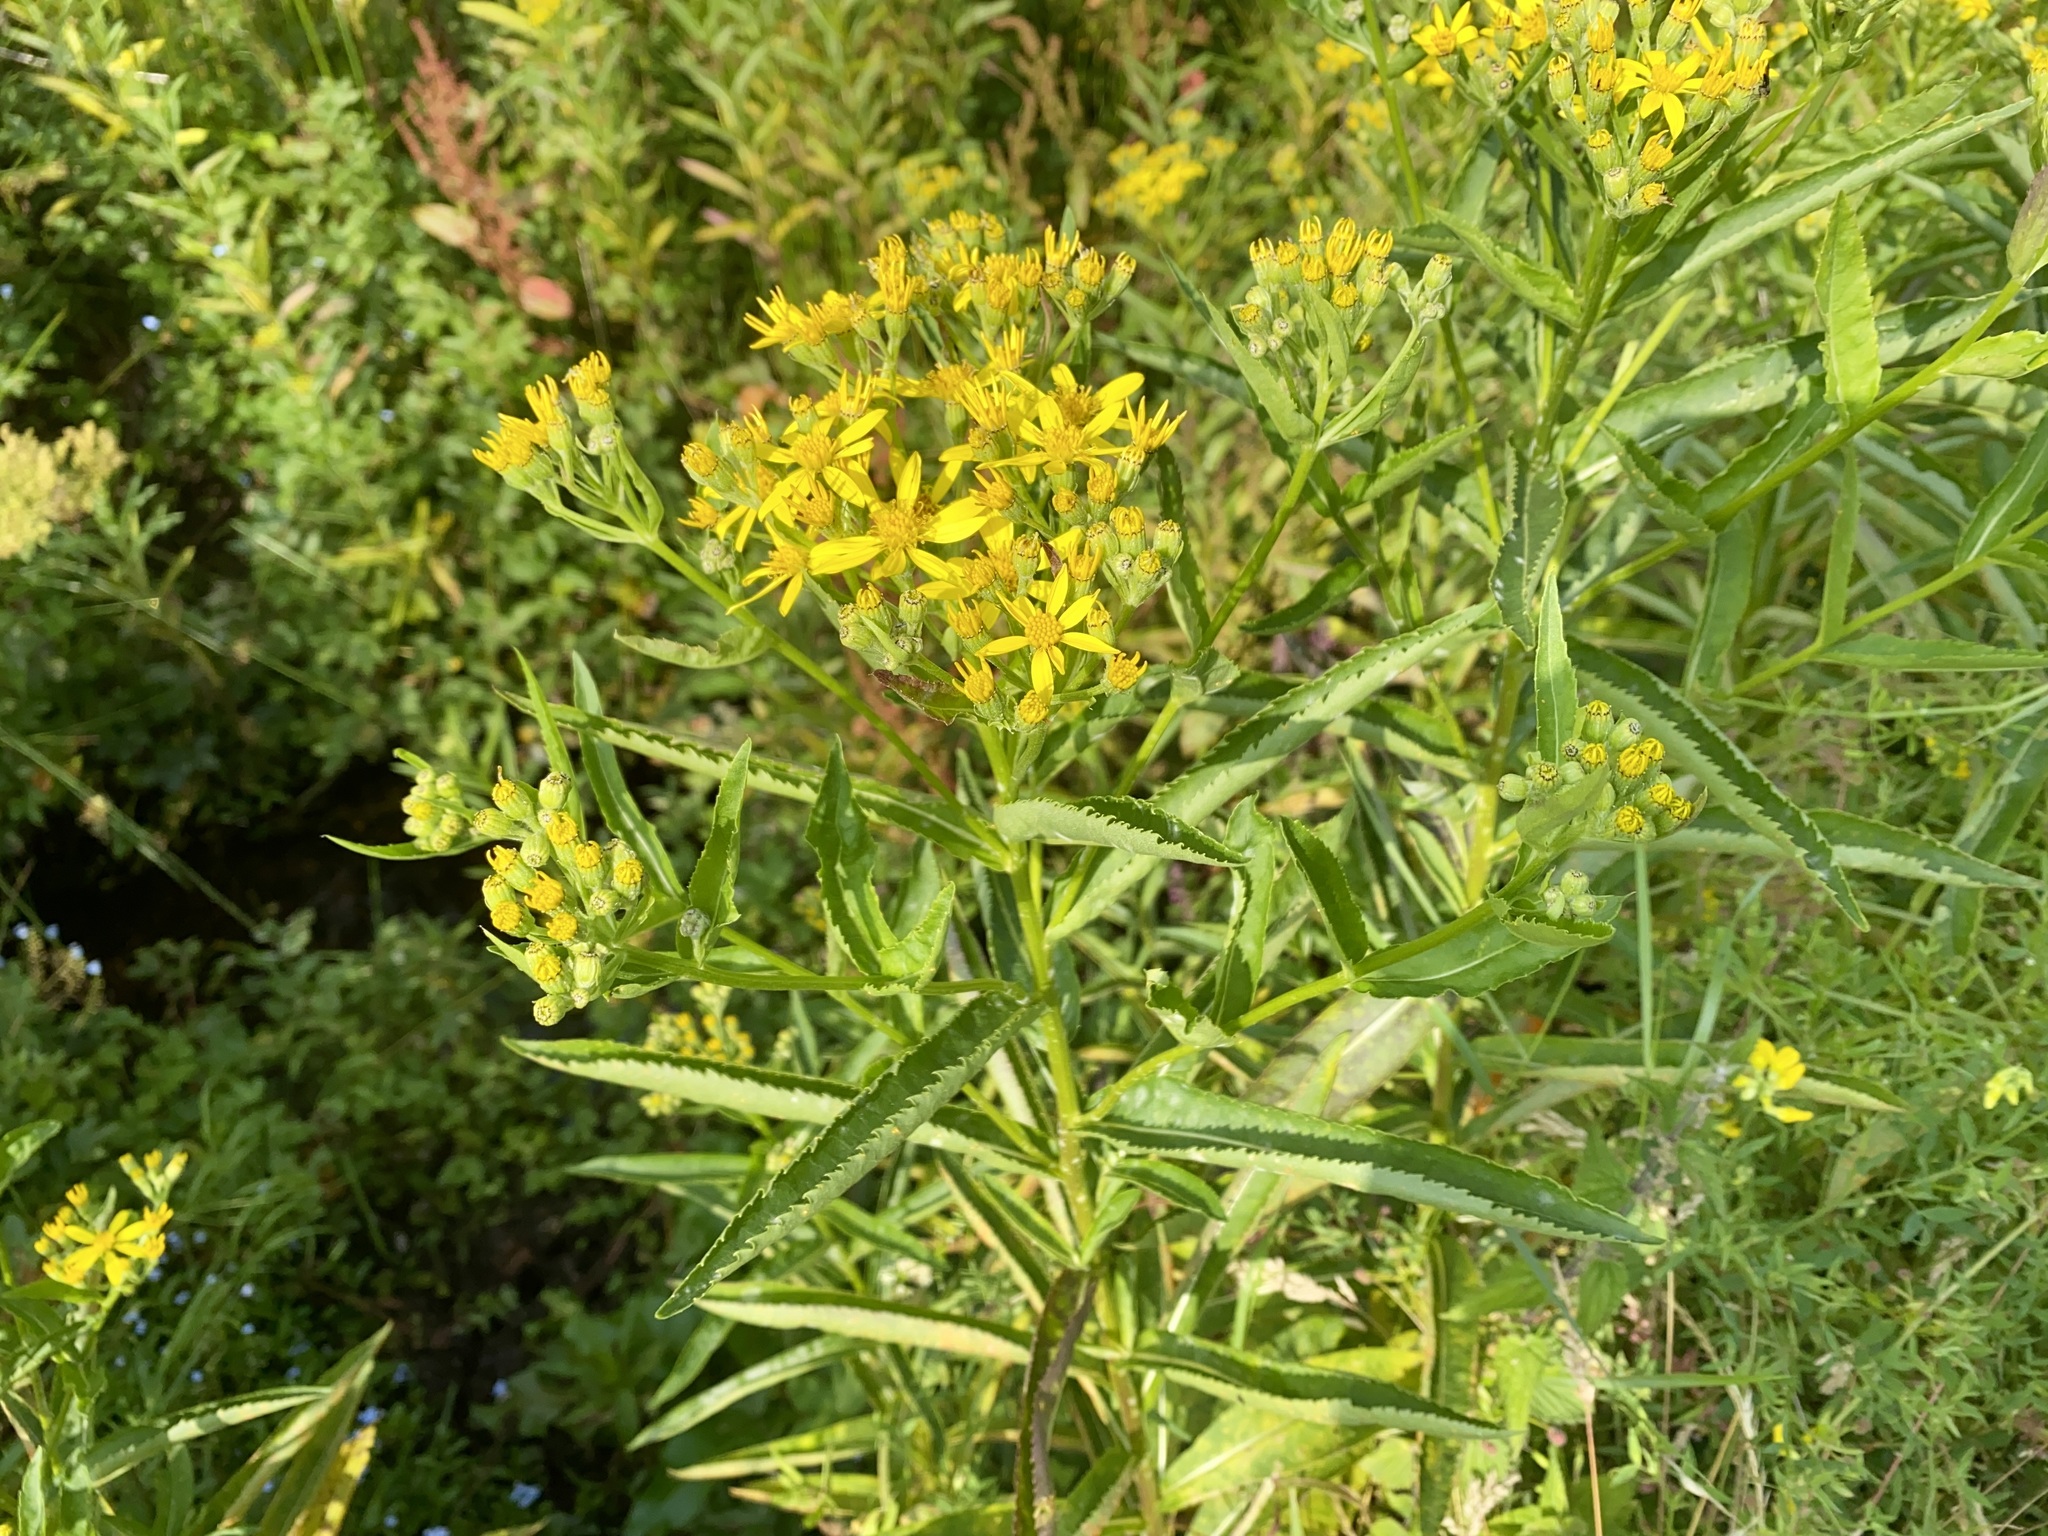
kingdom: Plantae
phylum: Tracheophyta
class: Magnoliopsida
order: Asterales
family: Asteraceae
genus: Solidago
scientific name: Solidago virgaurea
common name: Goldenrod
